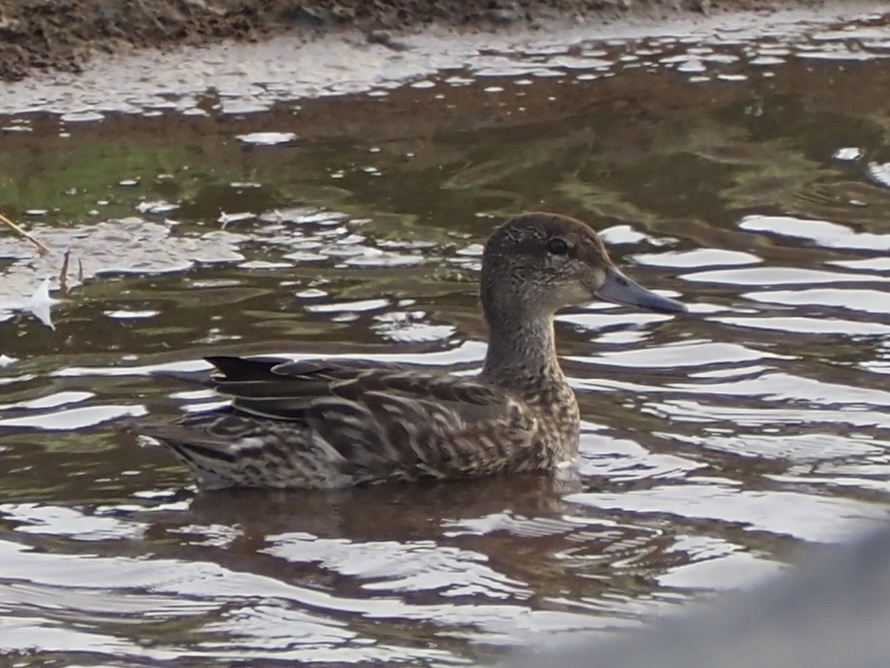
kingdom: Animalia
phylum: Chordata
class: Aves
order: Anseriformes
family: Anatidae
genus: Anas
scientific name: Anas crecca
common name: Eurasian teal
